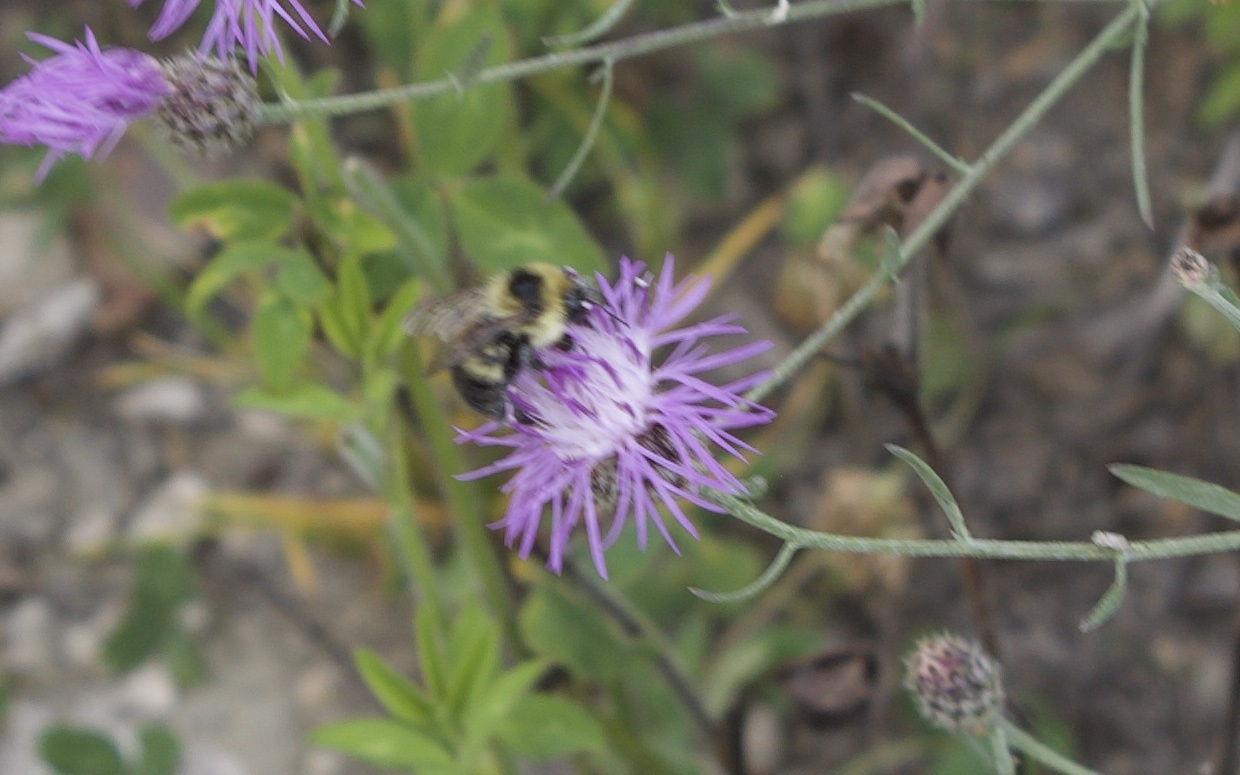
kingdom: Animalia
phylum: Arthropoda
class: Insecta
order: Hymenoptera
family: Apidae
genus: Bombus
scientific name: Bombus rufocinctus
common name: Red-belted bumble bee
